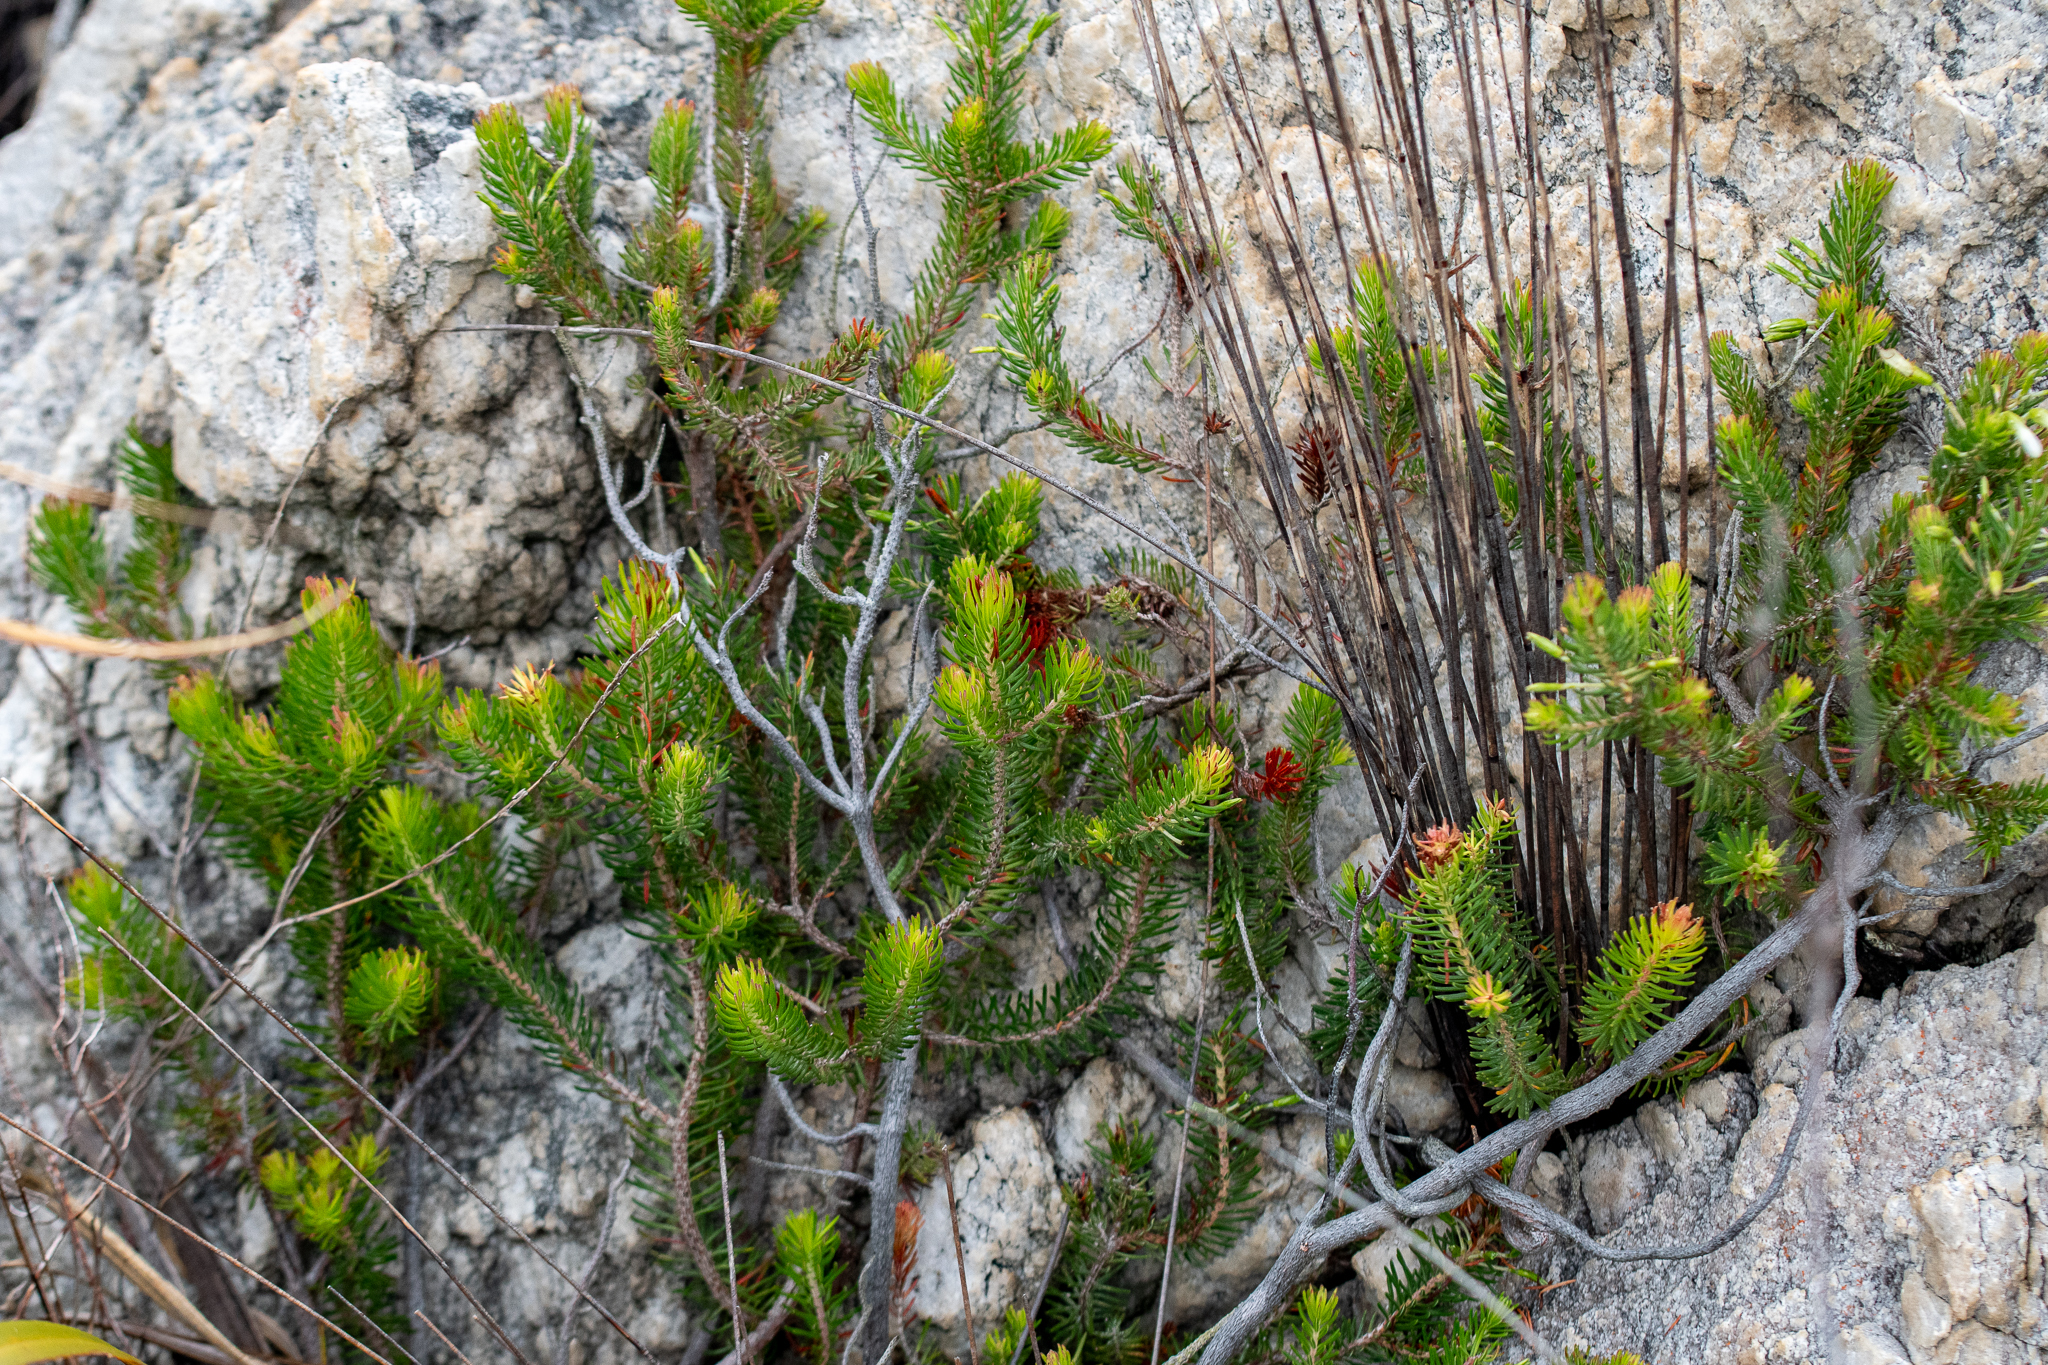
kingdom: Plantae
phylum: Tracheophyta
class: Magnoliopsida
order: Ericales
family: Ericaceae
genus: Erica
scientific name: Erica thomae
